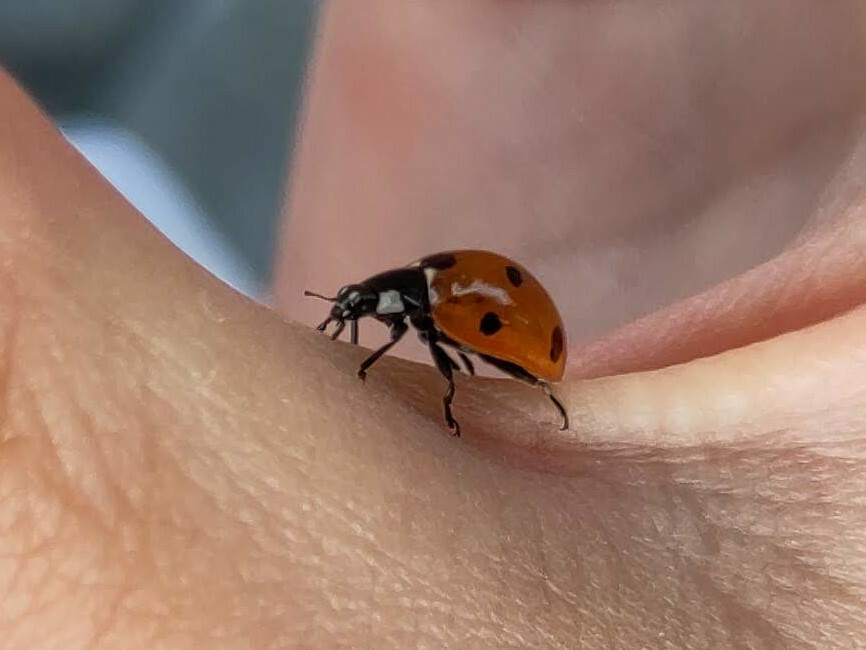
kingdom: Animalia
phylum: Arthropoda
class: Insecta
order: Coleoptera
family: Coccinellidae
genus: Coccinella
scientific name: Coccinella septempunctata
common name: Sevenspotted lady beetle
